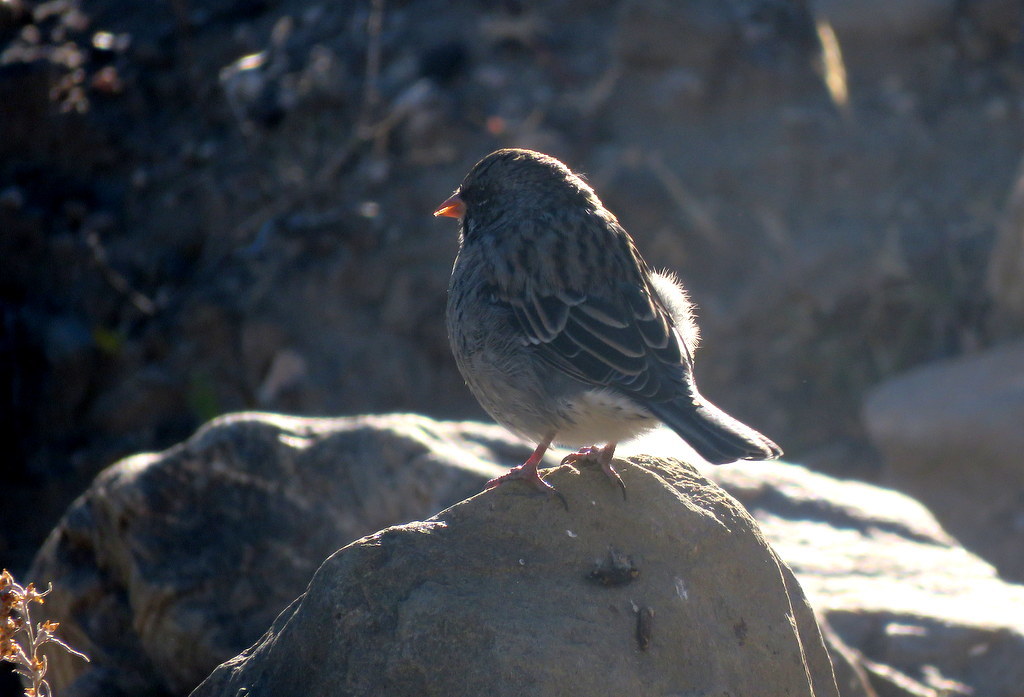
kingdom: Animalia
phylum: Chordata
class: Aves
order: Passeriformes
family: Thraupidae
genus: Rhopospina
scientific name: Rhopospina fruticeti
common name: Mourning sierra finch
